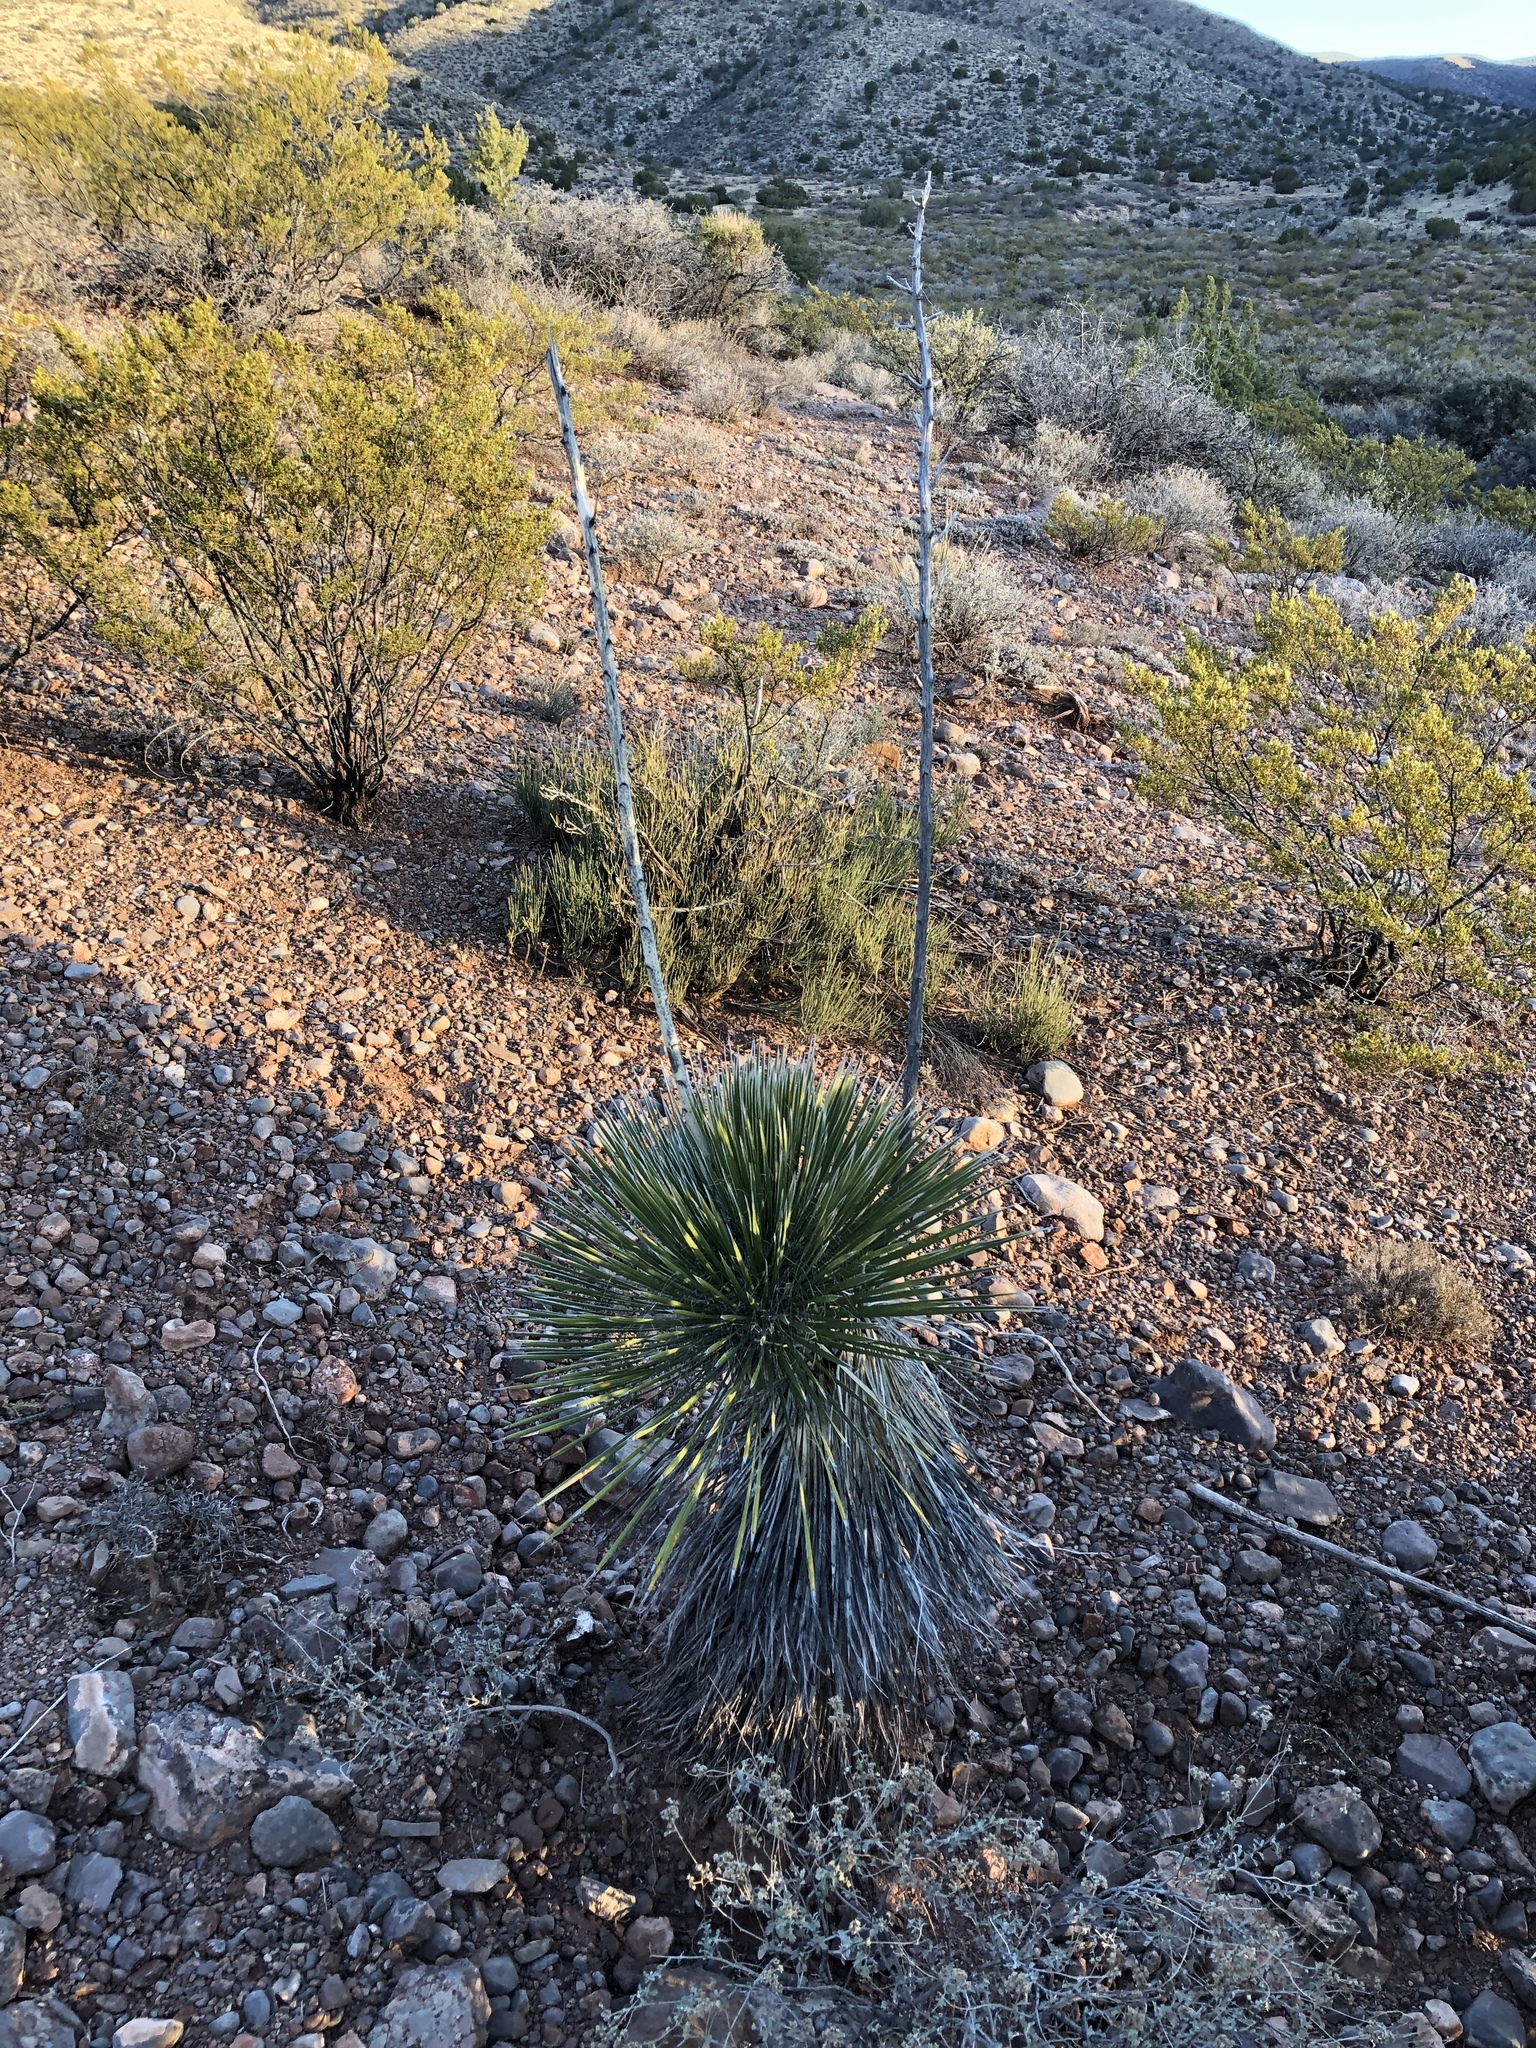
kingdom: Plantae
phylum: Tracheophyta
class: Liliopsida
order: Asparagales
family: Asparagaceae
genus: Yucca
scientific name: Yucca elata
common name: Palmella
